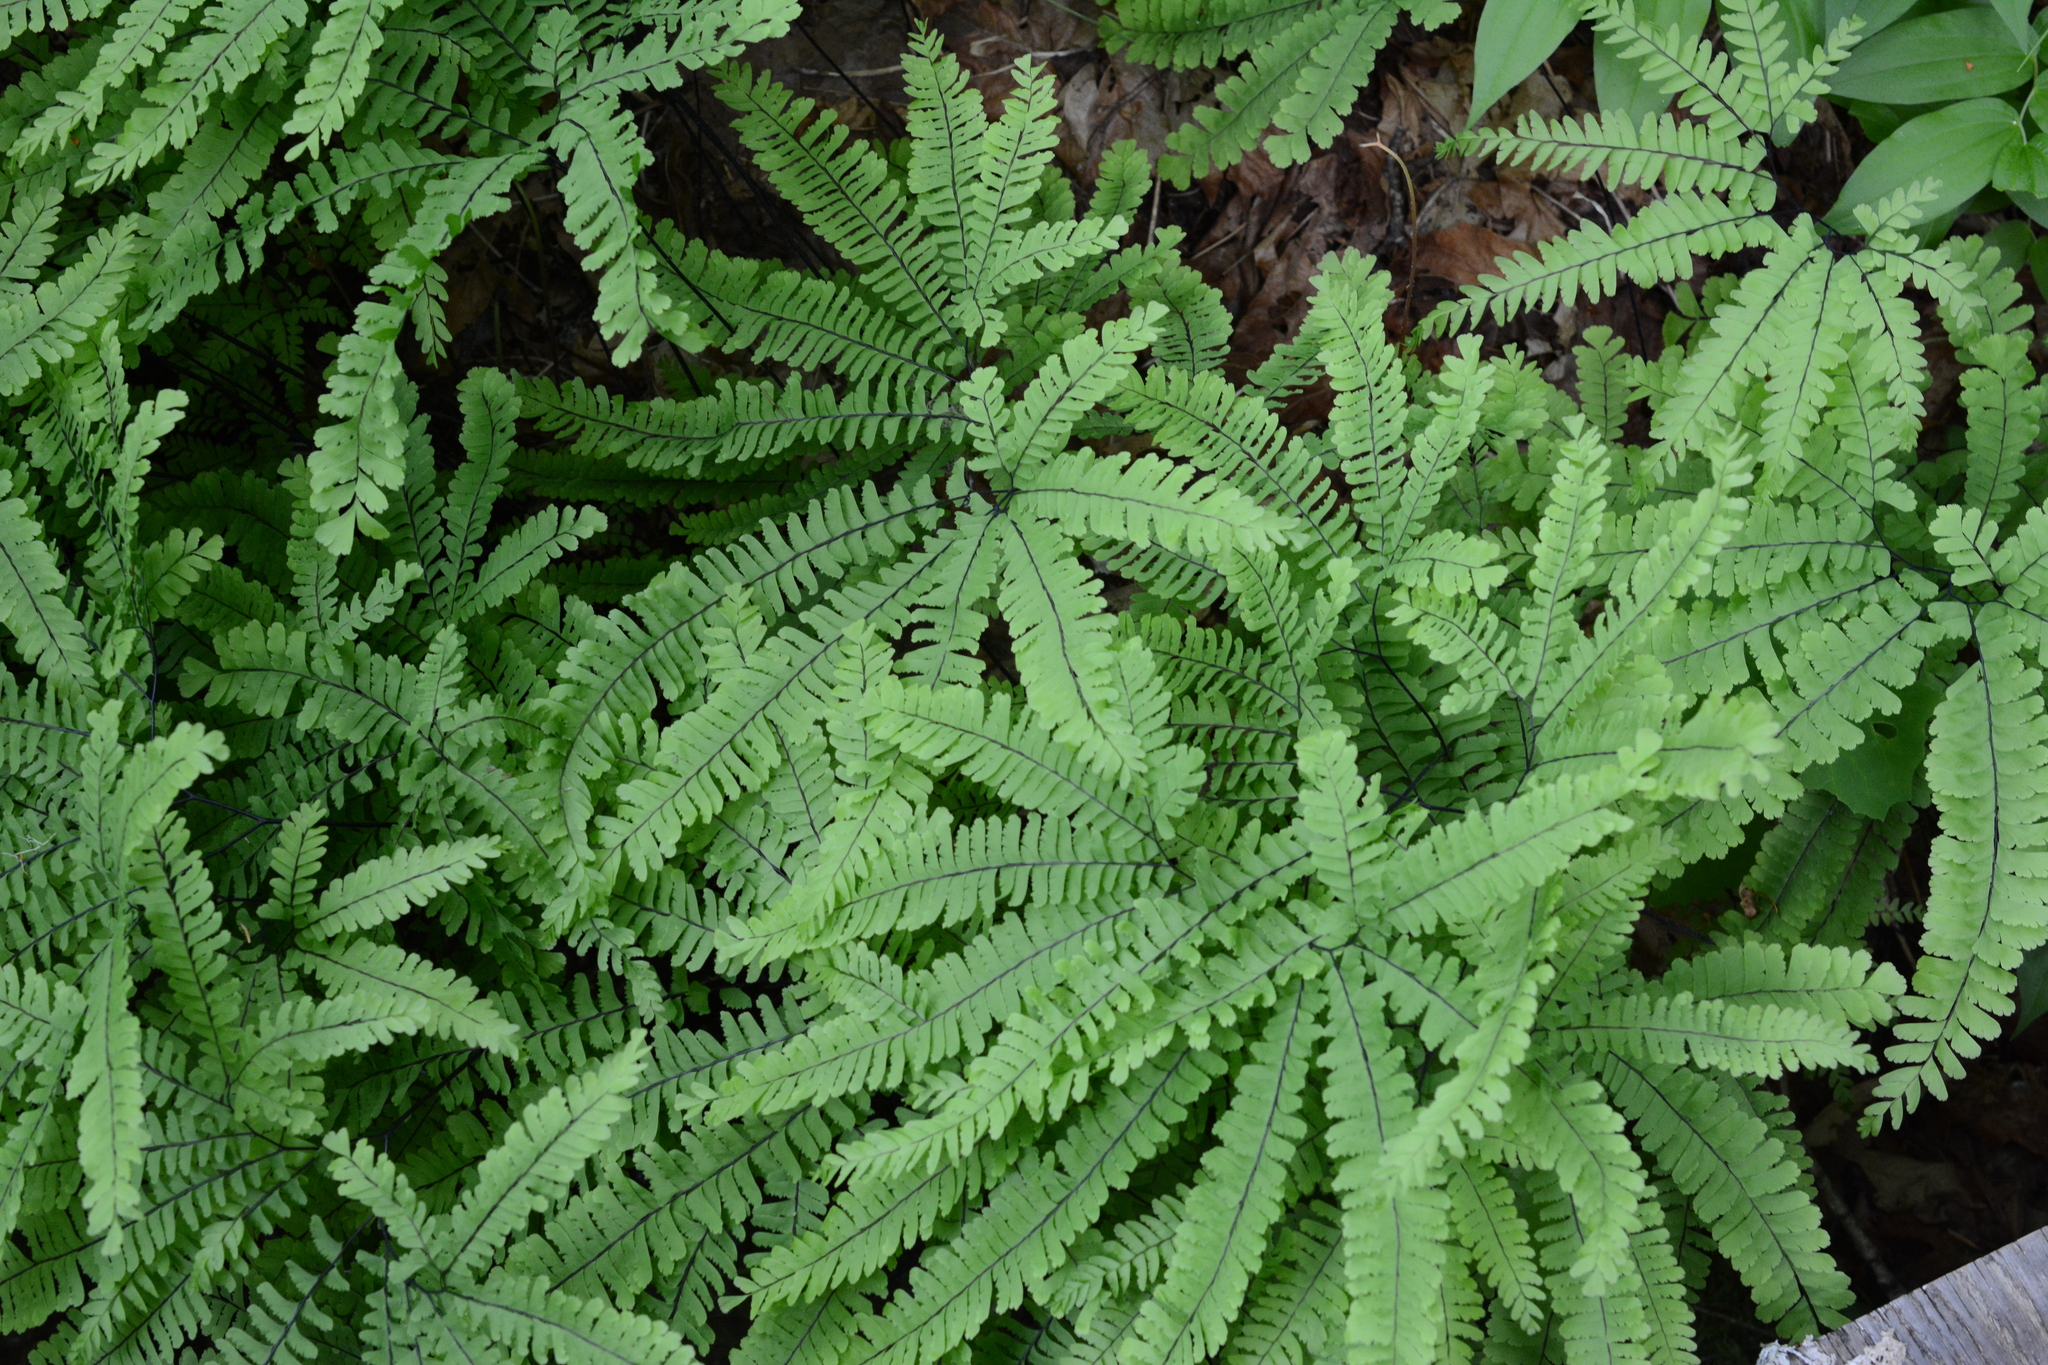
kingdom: Plantae
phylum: Tracheophyta
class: Polypodiopsida
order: Polypodiales
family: Pteridaceae
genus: Adiantum
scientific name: Adiantum aleuticum
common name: Aleutian maidenhair fern
